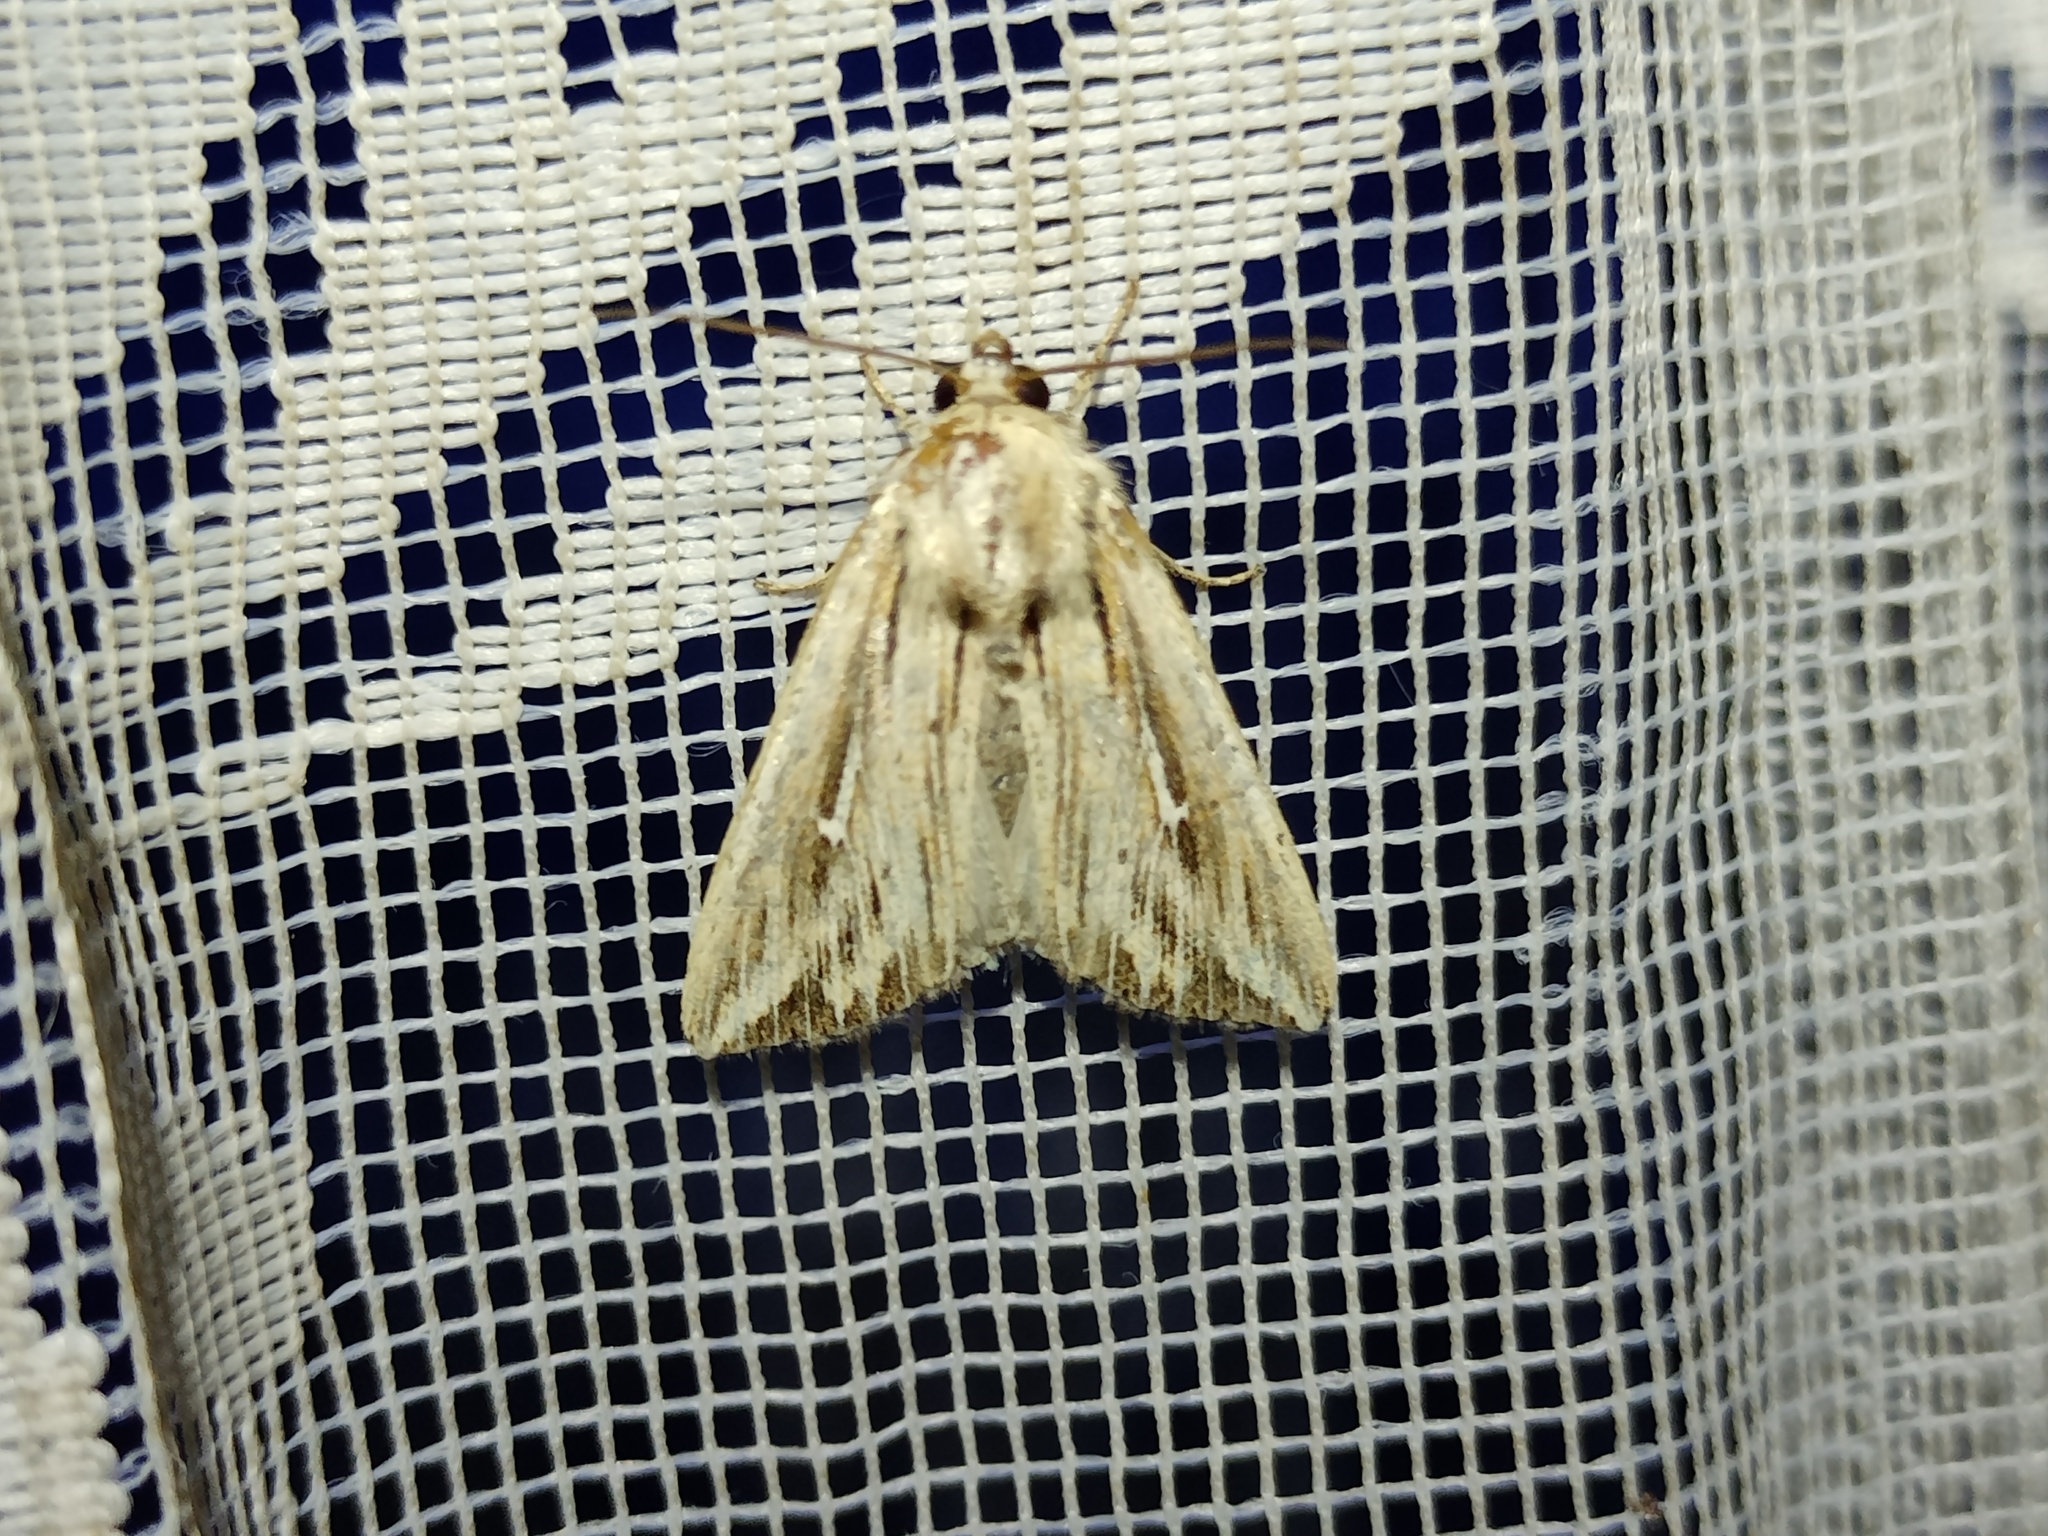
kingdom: Animalia
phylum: Arthropoda
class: Insecta
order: Lepidoptera
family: Noctuidae
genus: Mythimna
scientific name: Mythimna l-album
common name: L-album wainscot
